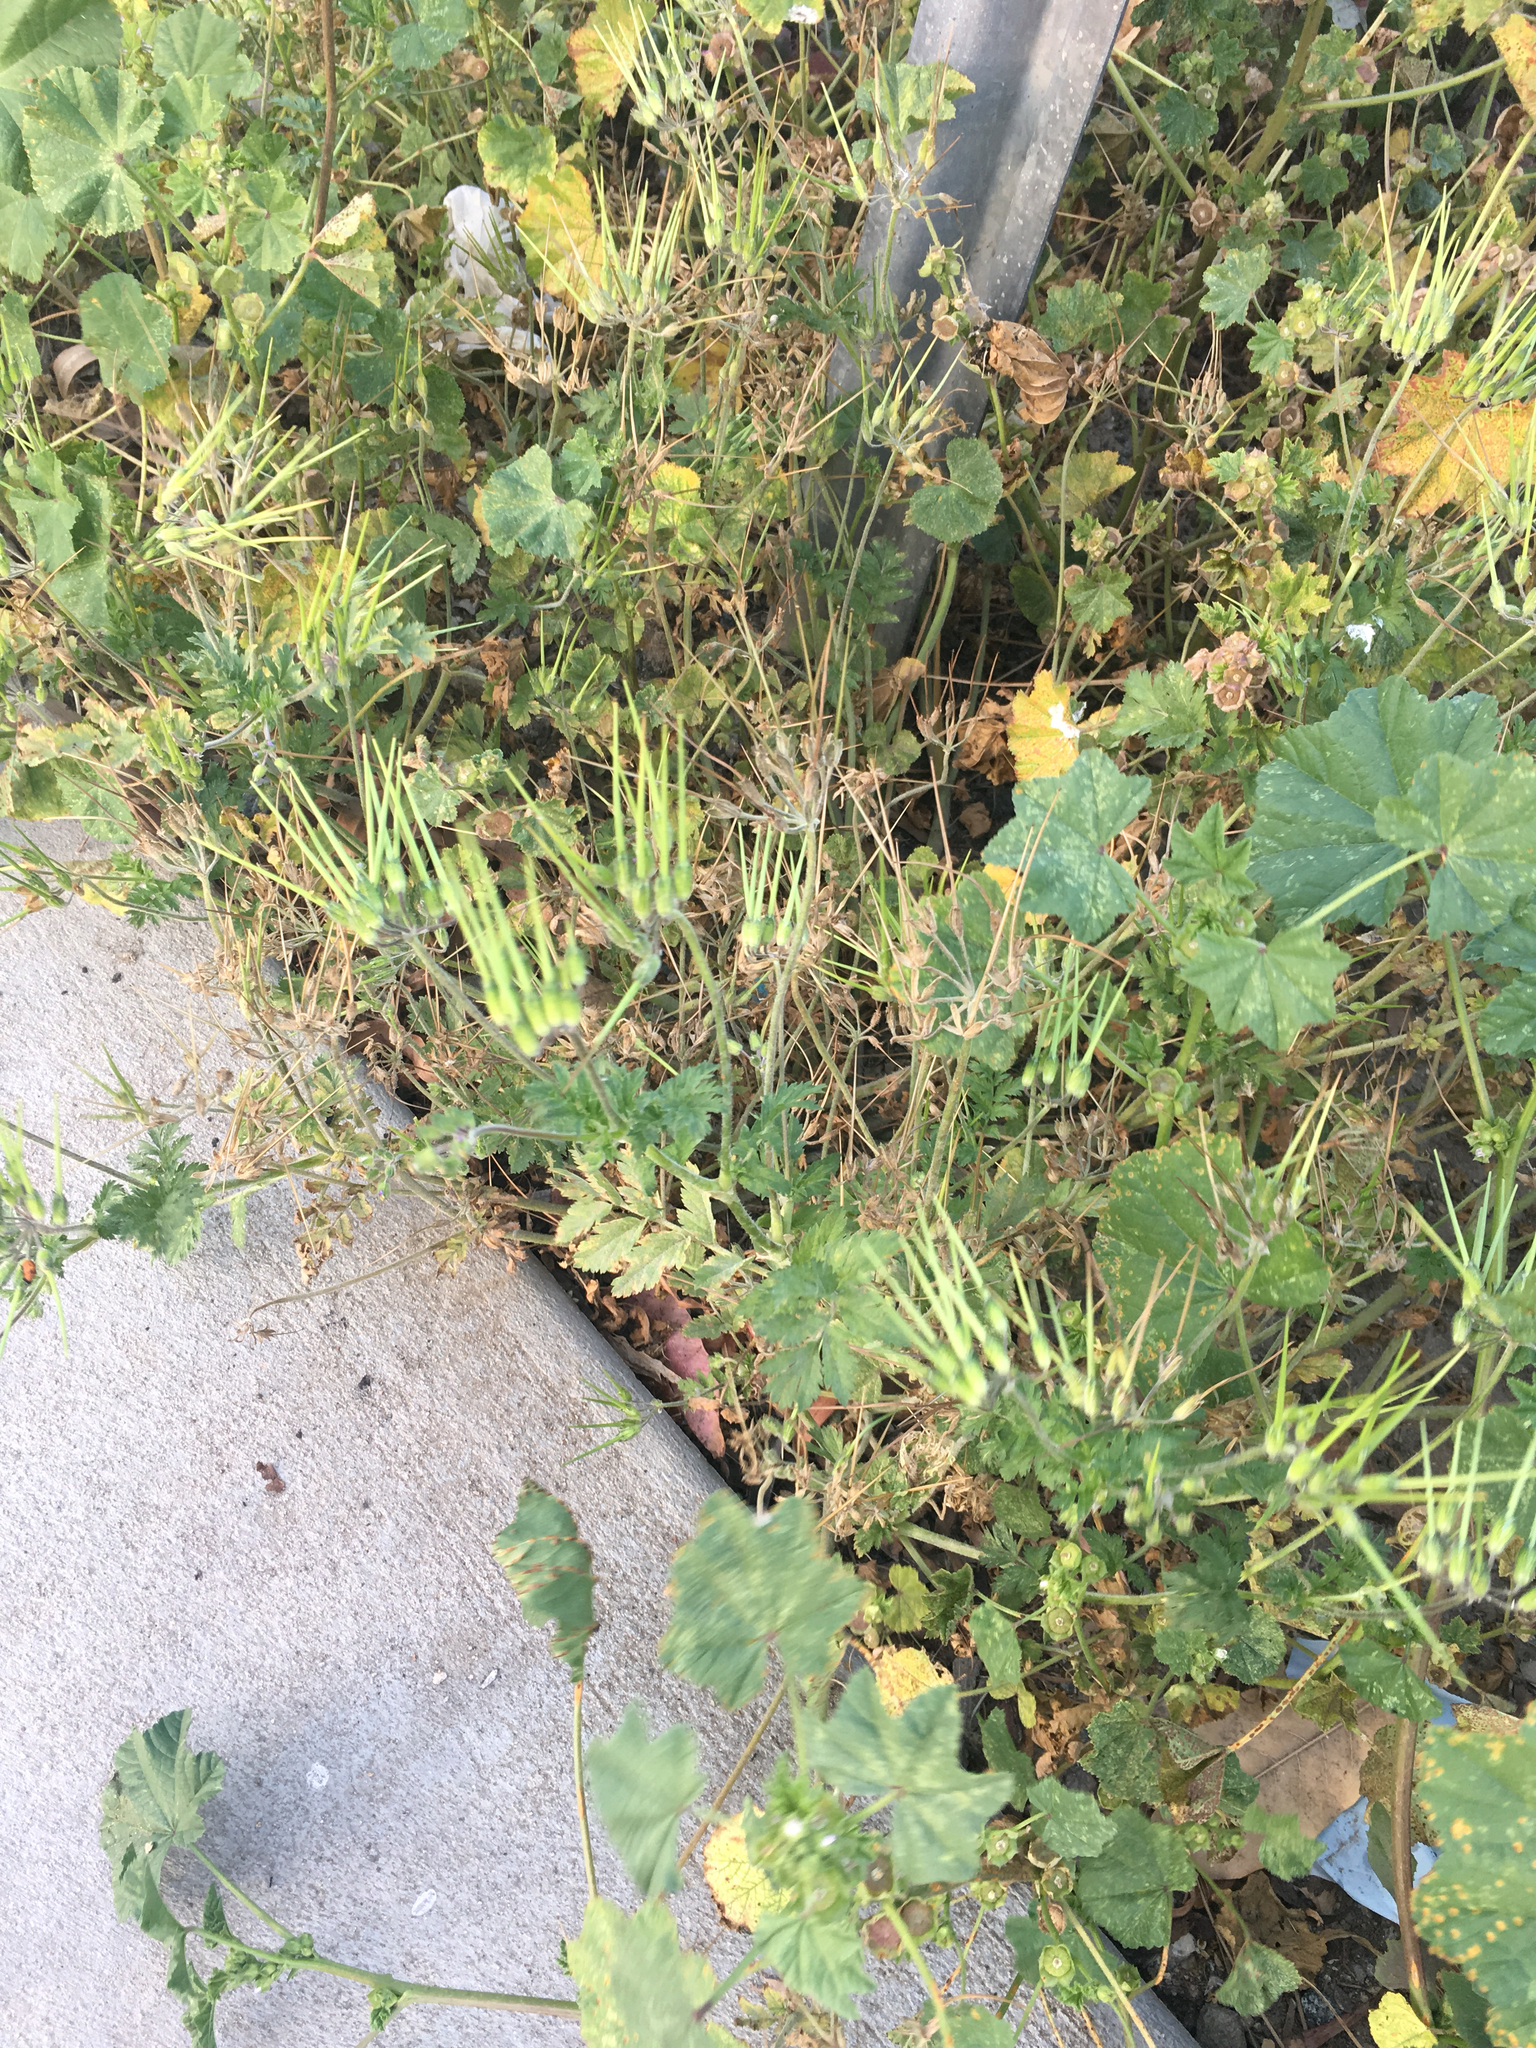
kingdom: Plantae
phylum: Tracheophyta
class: Magnoliopsida
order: Geraniales
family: Geraniaceae
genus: Erodium
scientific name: Erodium moschatum
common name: Musk stork's-bill
